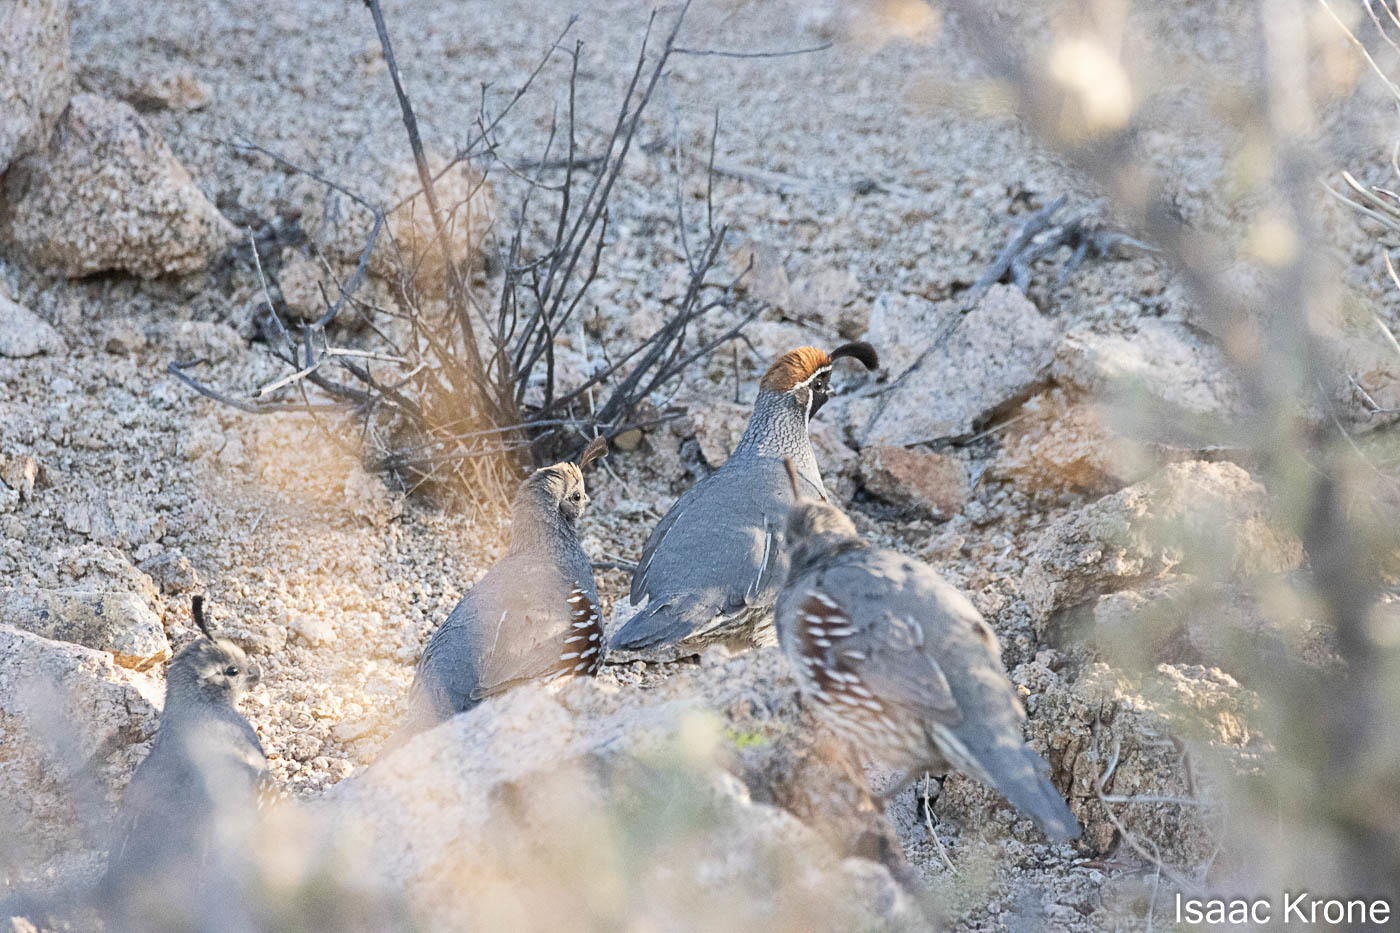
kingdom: Animalia
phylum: Chordata
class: Aves
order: Galliformes
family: Odontophoridae
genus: Callipepla
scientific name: Callipepla gambelii
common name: Gambel's quail
